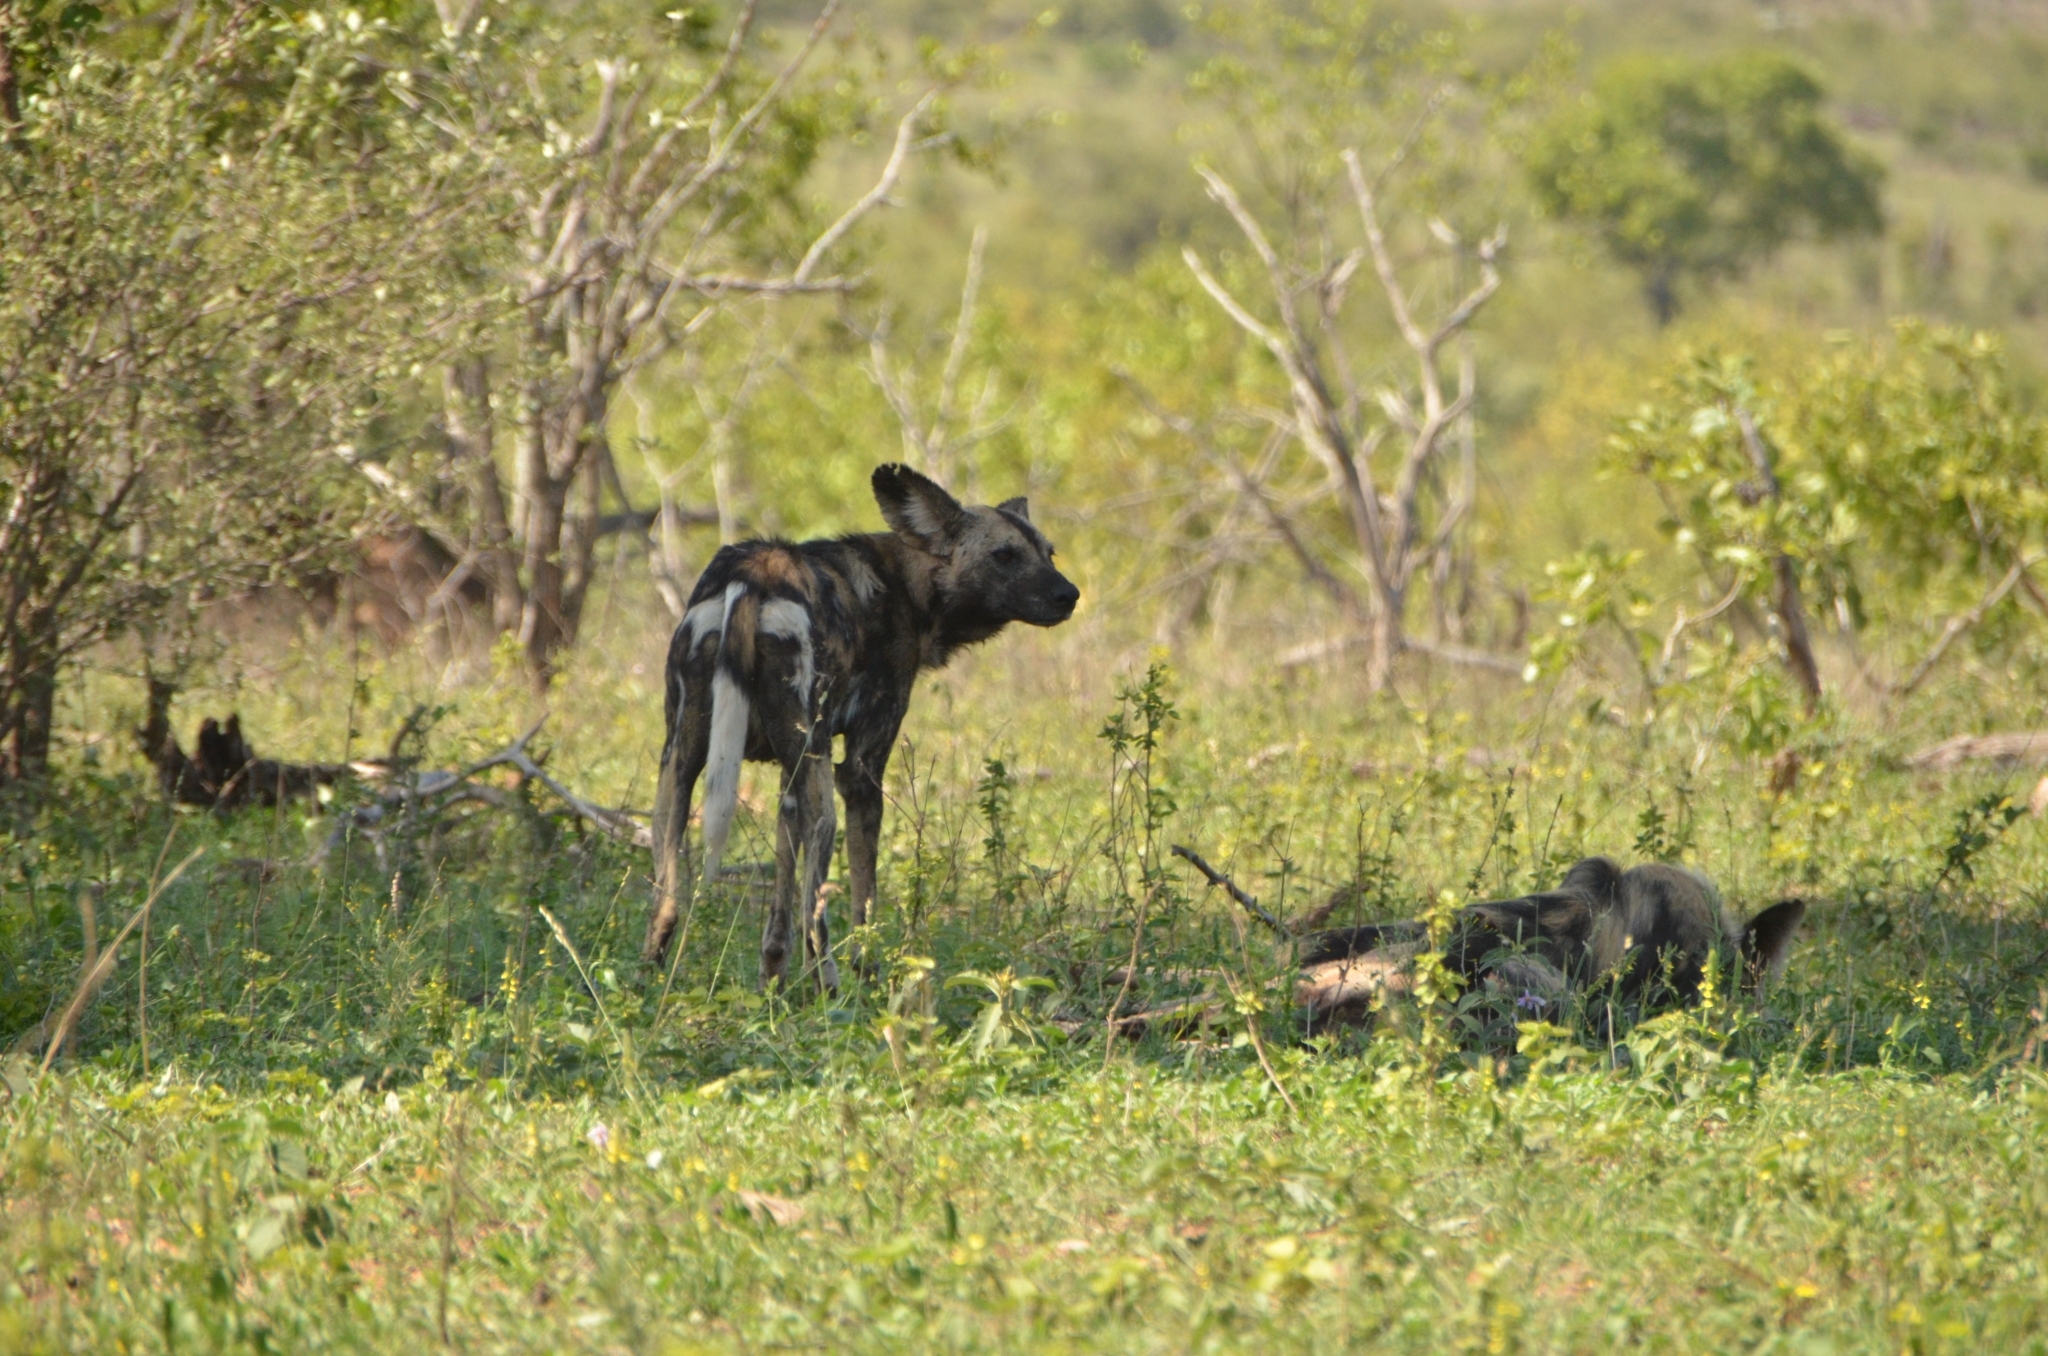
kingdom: Animalia
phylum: Chordata
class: Mammalia
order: Carnivora
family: Canidae
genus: Lycaon
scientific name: Lycaon pictus
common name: African wild dog
